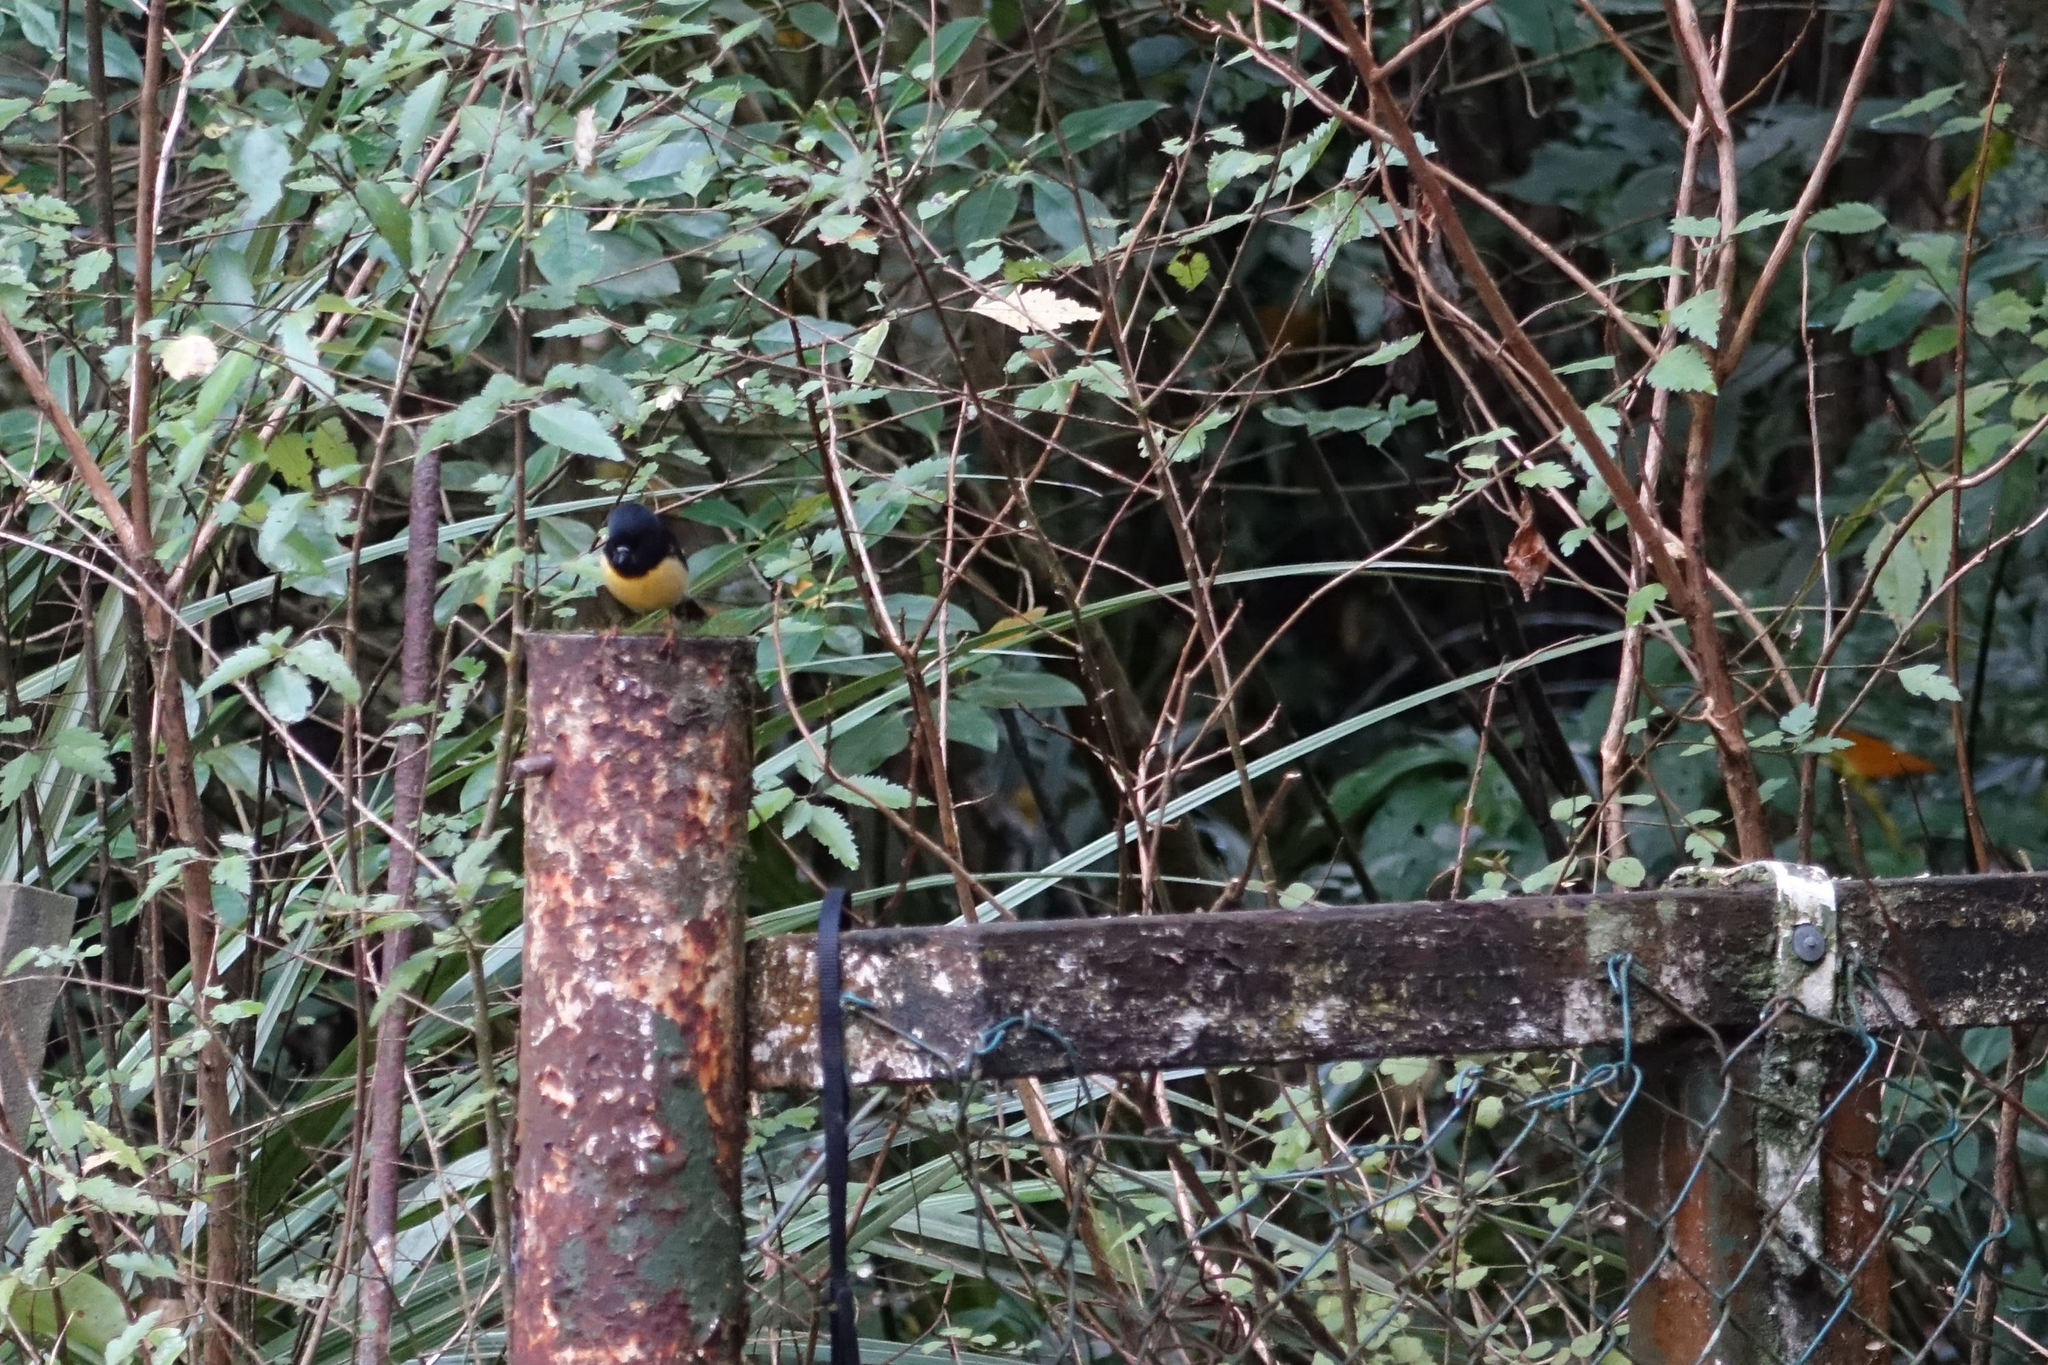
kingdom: Animalia
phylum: Chordata
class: Aves
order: Passeriformes
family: Petroicidae
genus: Petroica
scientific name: Petroica macrocephala
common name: Tomtit
